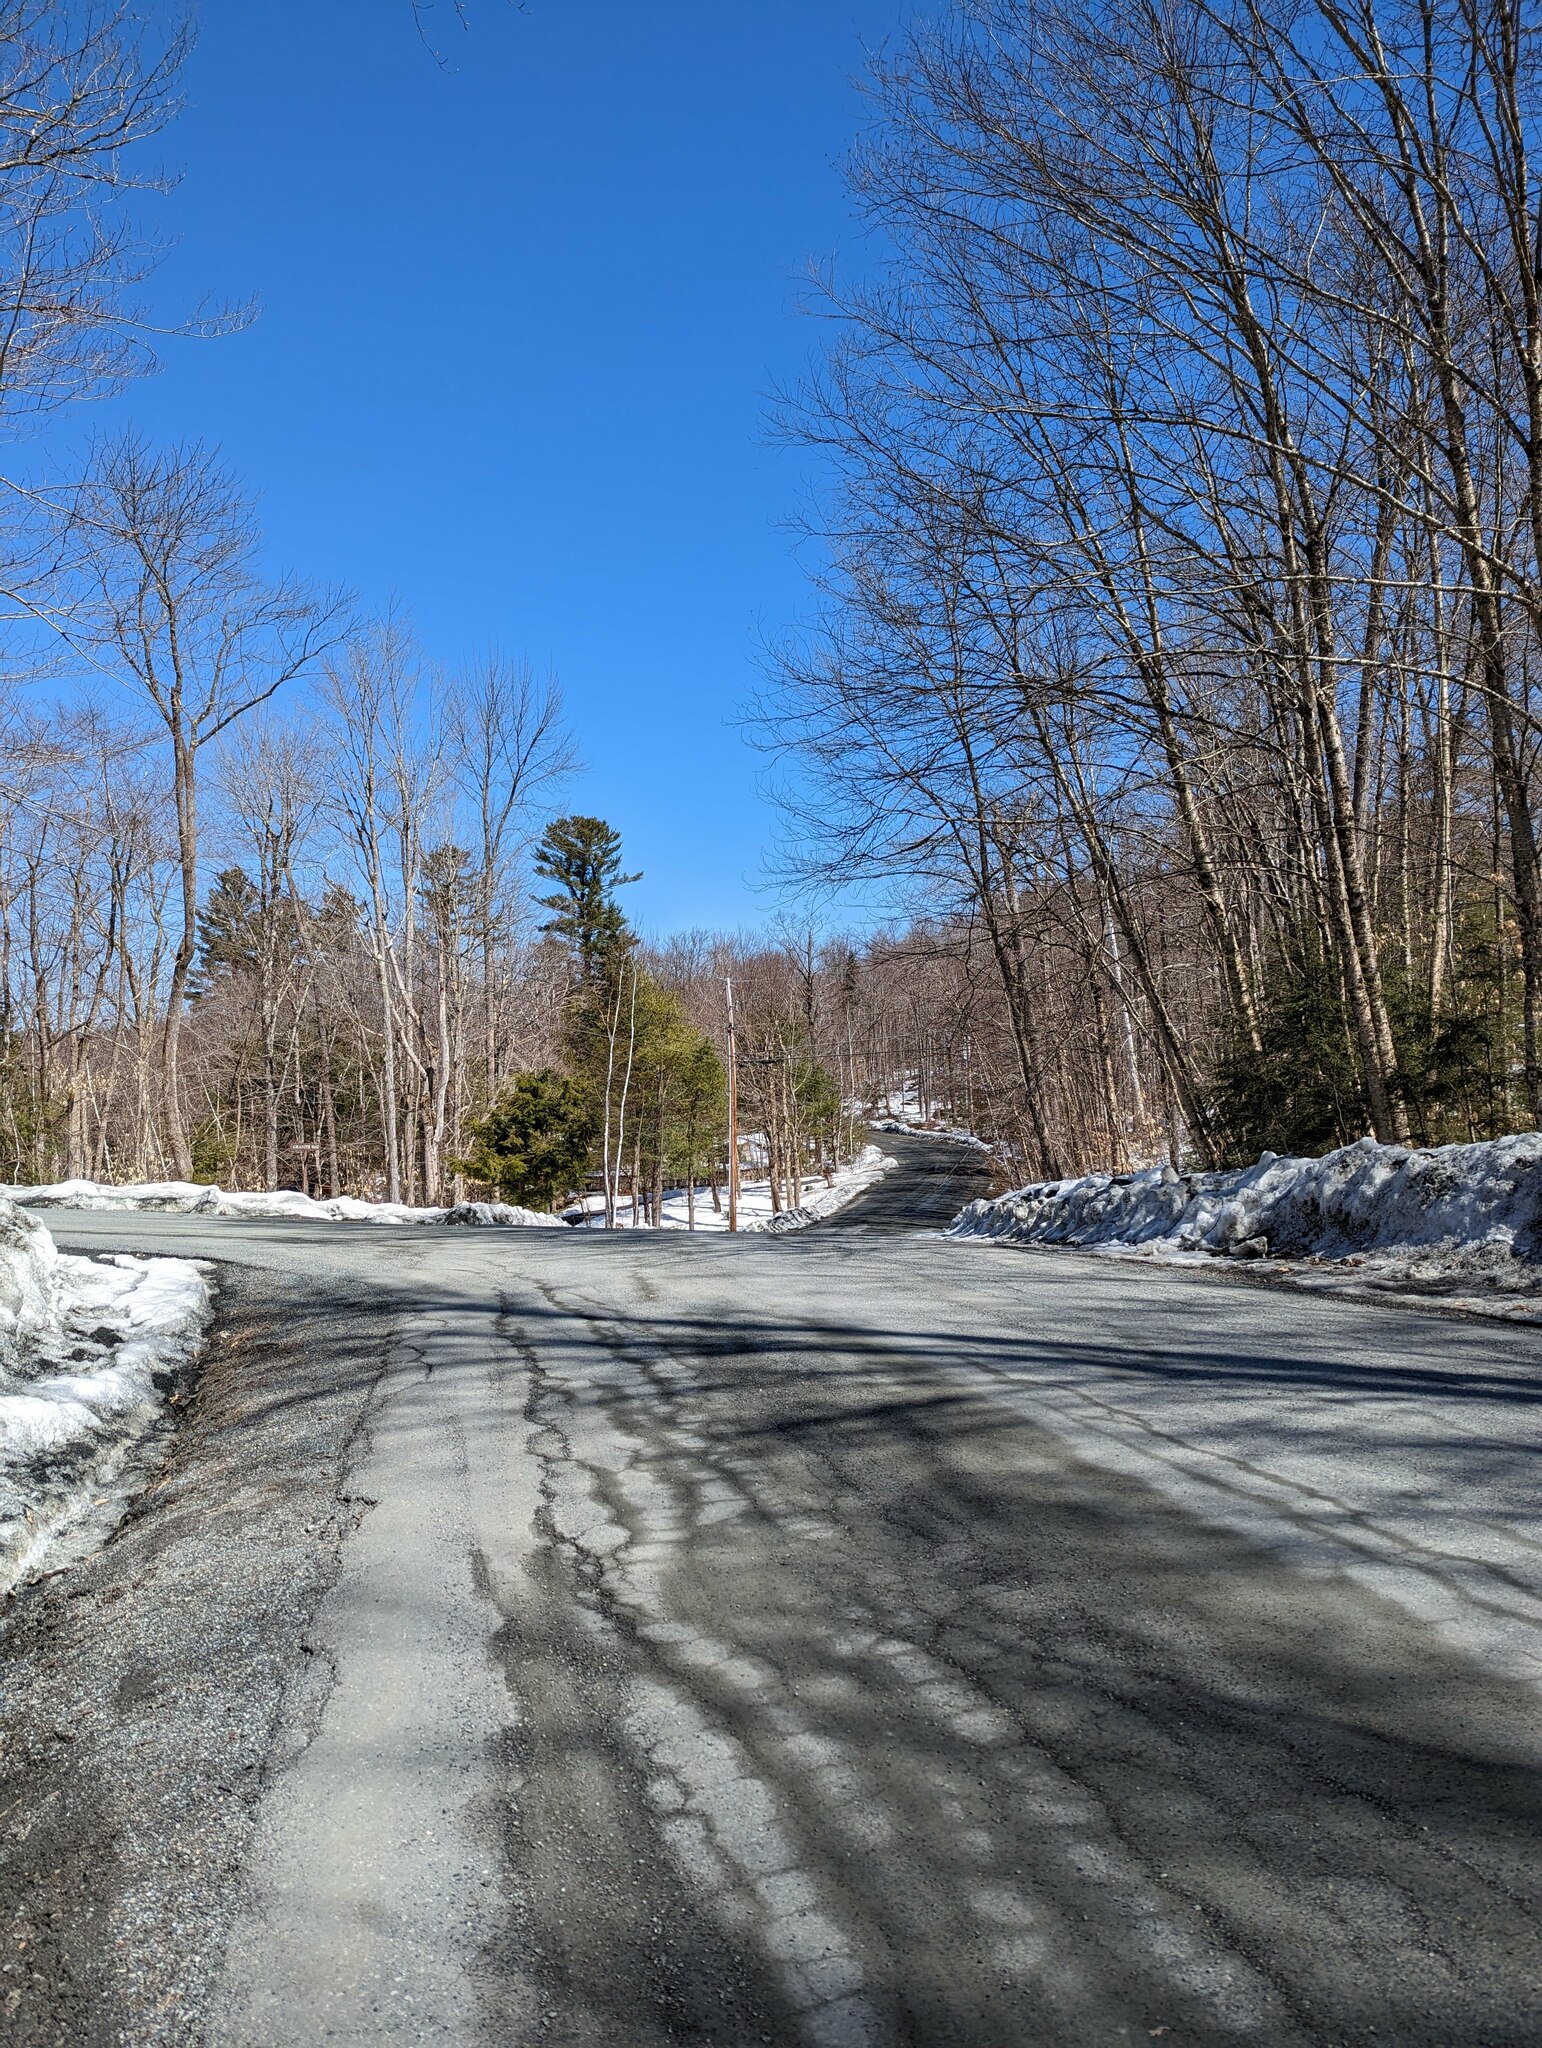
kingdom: Plantae
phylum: Tracheophyta
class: Pinopsida
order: Pinales
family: Pinaceae
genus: Pinus
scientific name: Pinus strobus
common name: Weymouth pine
